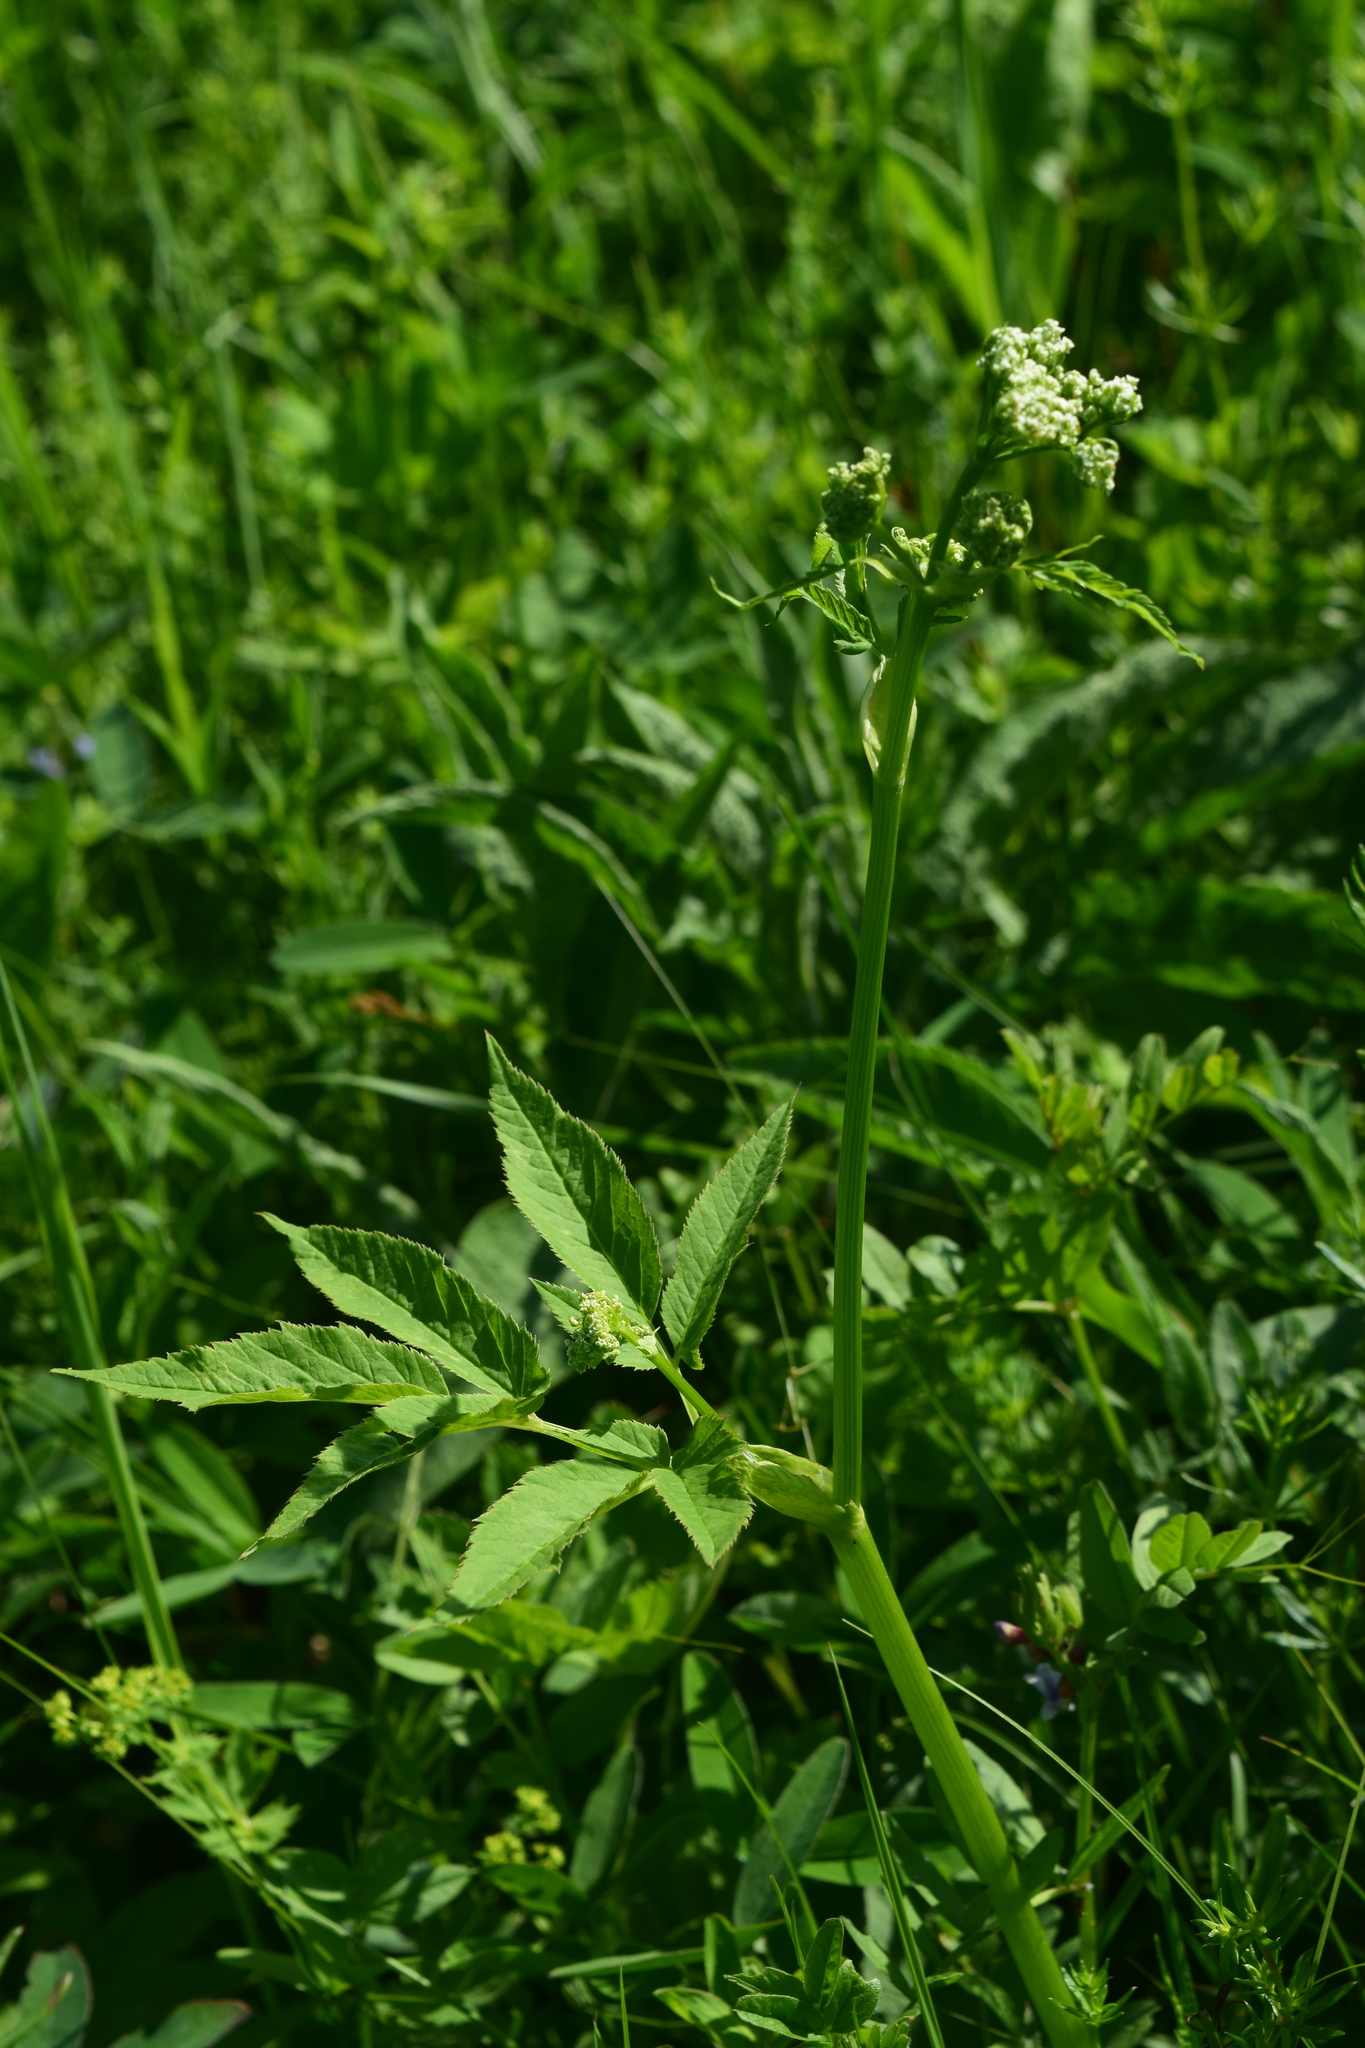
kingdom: Plantae
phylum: Tracheophyta
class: Magnoliopsida
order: Apiales
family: Apiaceae
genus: Aegopodium
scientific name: Aegopodium podagraria
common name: Ground-elder
